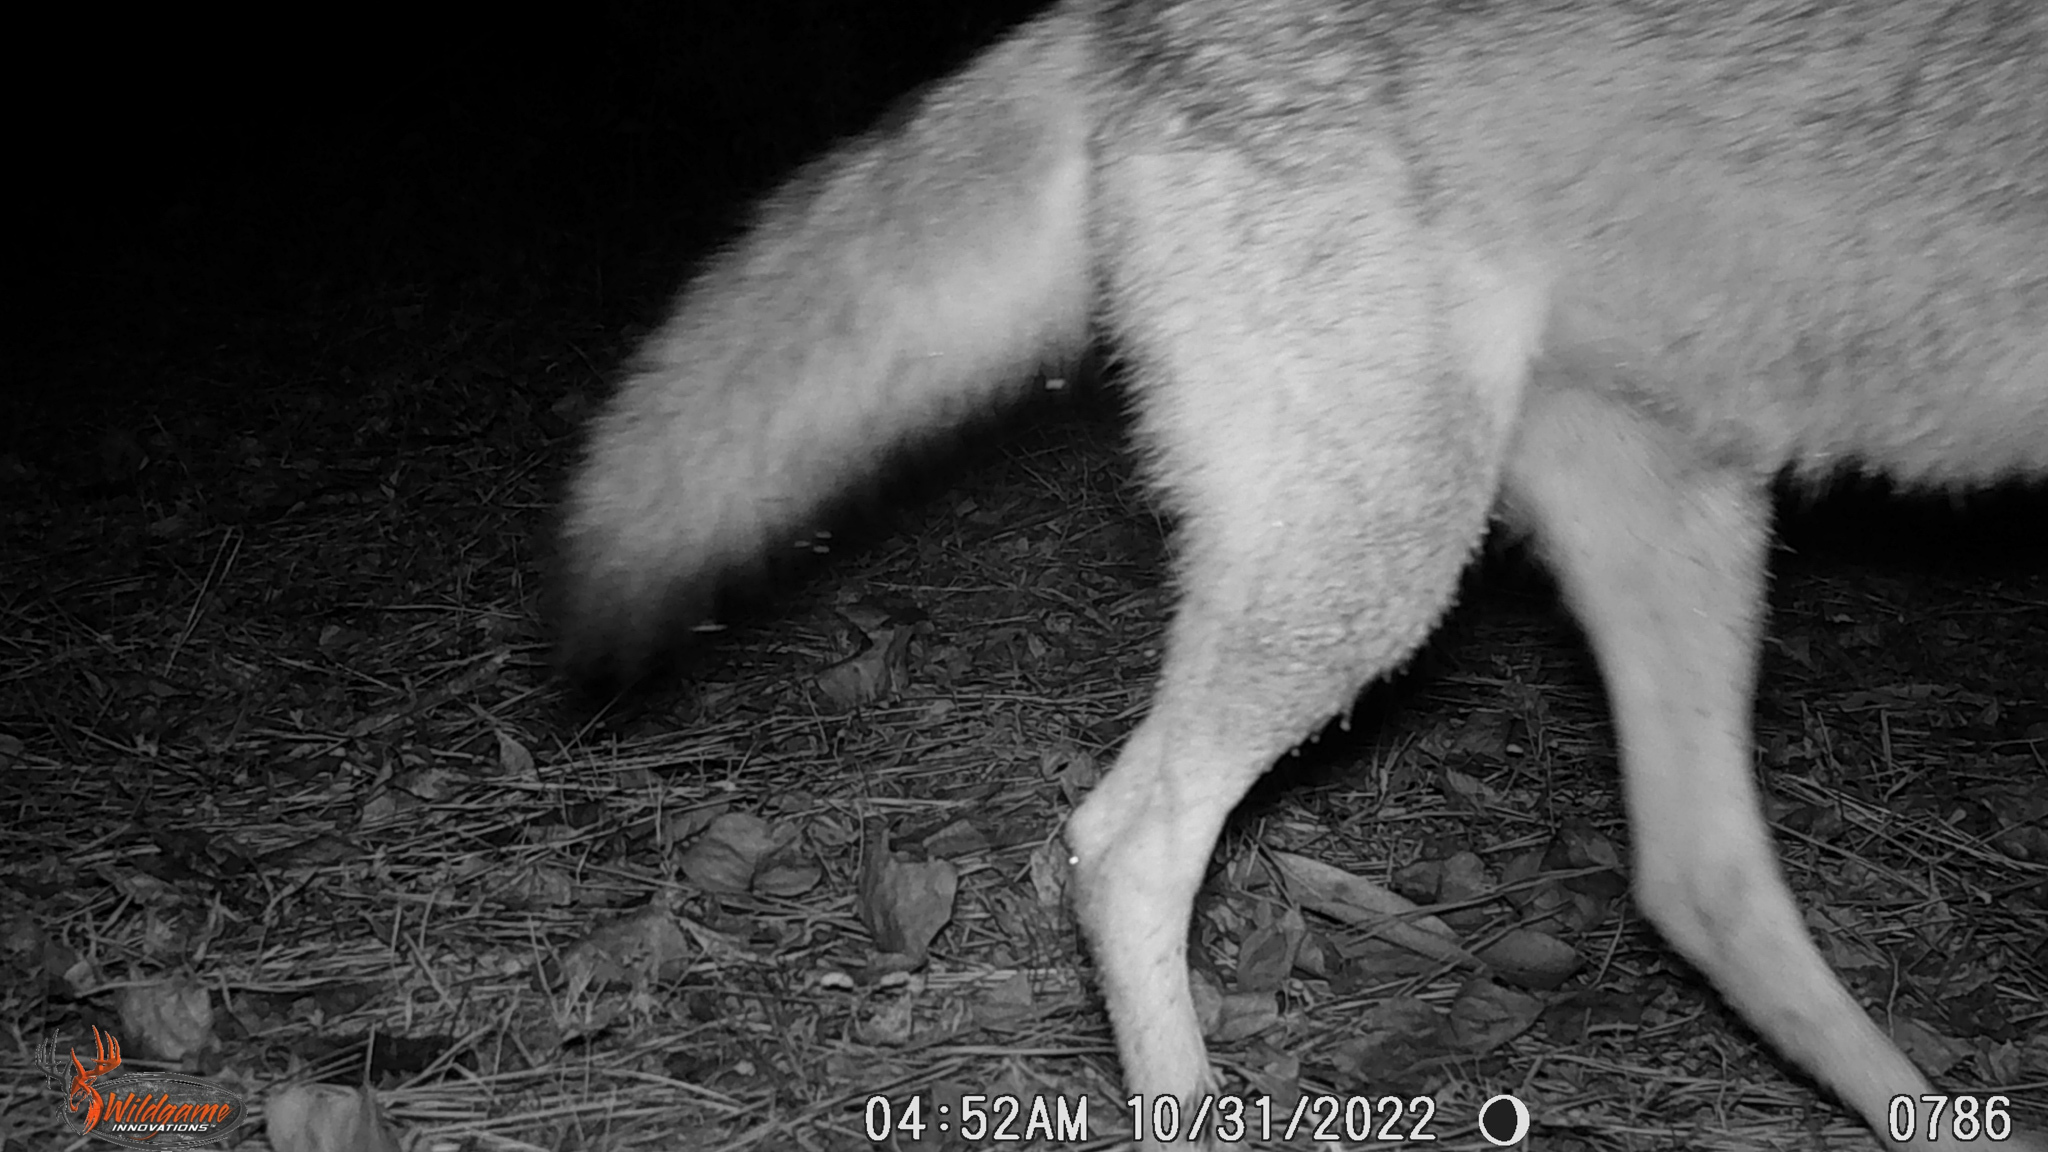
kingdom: Animalia
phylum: Chordata
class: Mammalia
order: Carnivora
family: Canidae
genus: Canis
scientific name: Canis latrans
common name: Coyote
